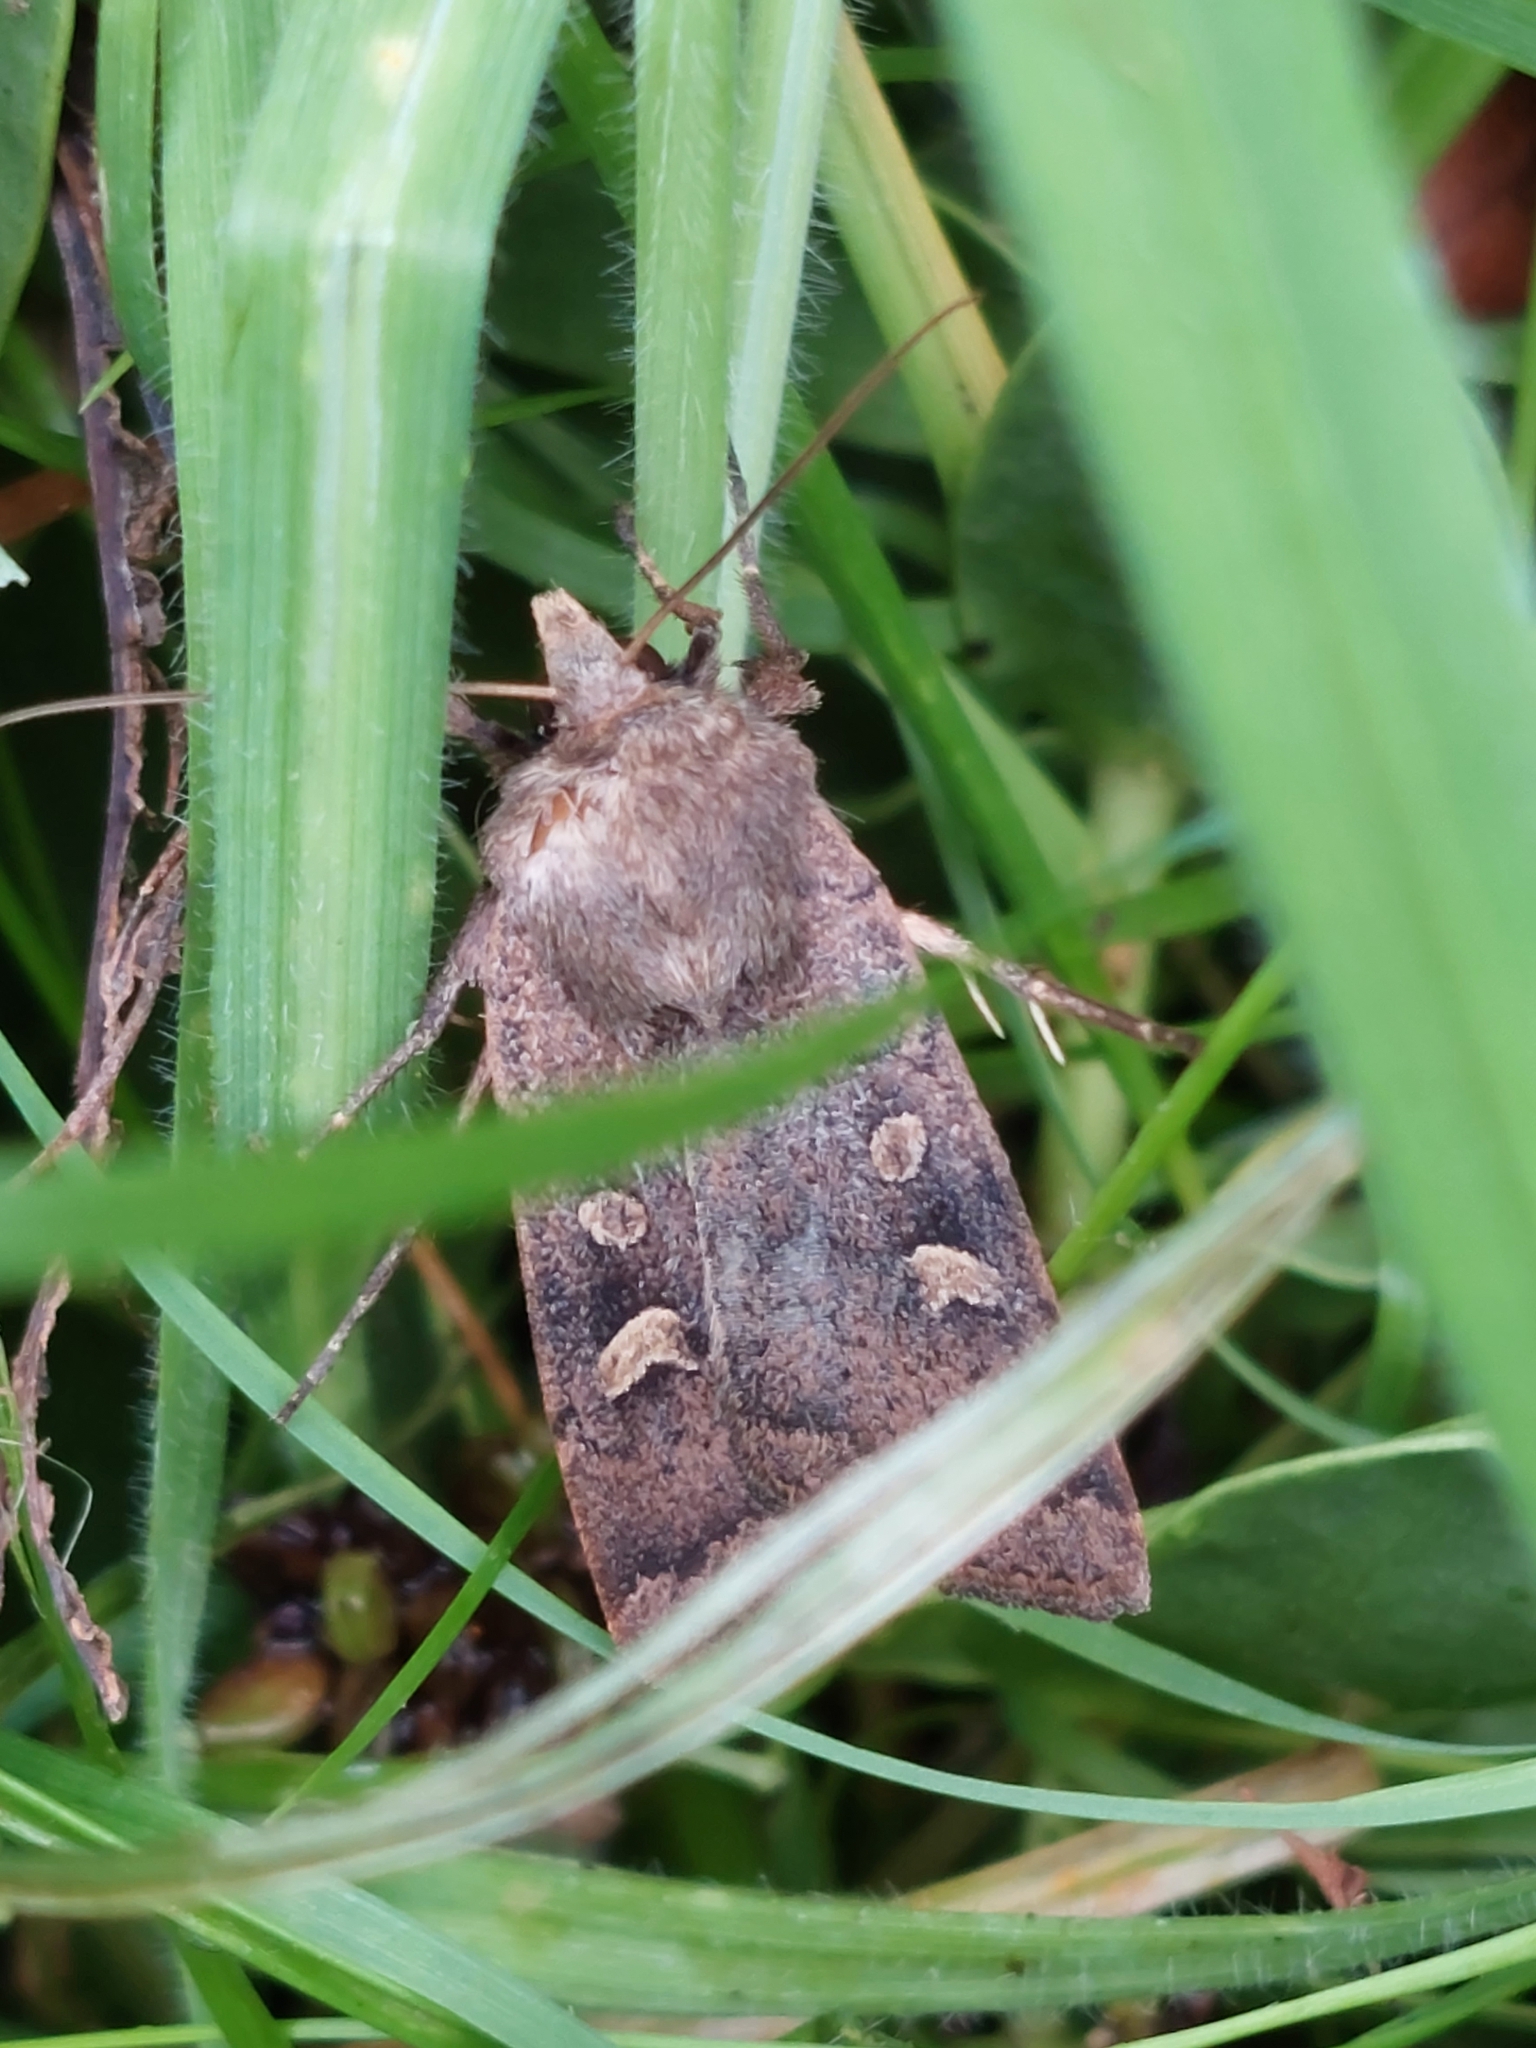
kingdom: Animalia
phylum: Arthropoda
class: Insecta
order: Lepidoptera
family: Noctuidae
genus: Xestia
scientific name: Xestia xanthographa
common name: Square-spot rustic
